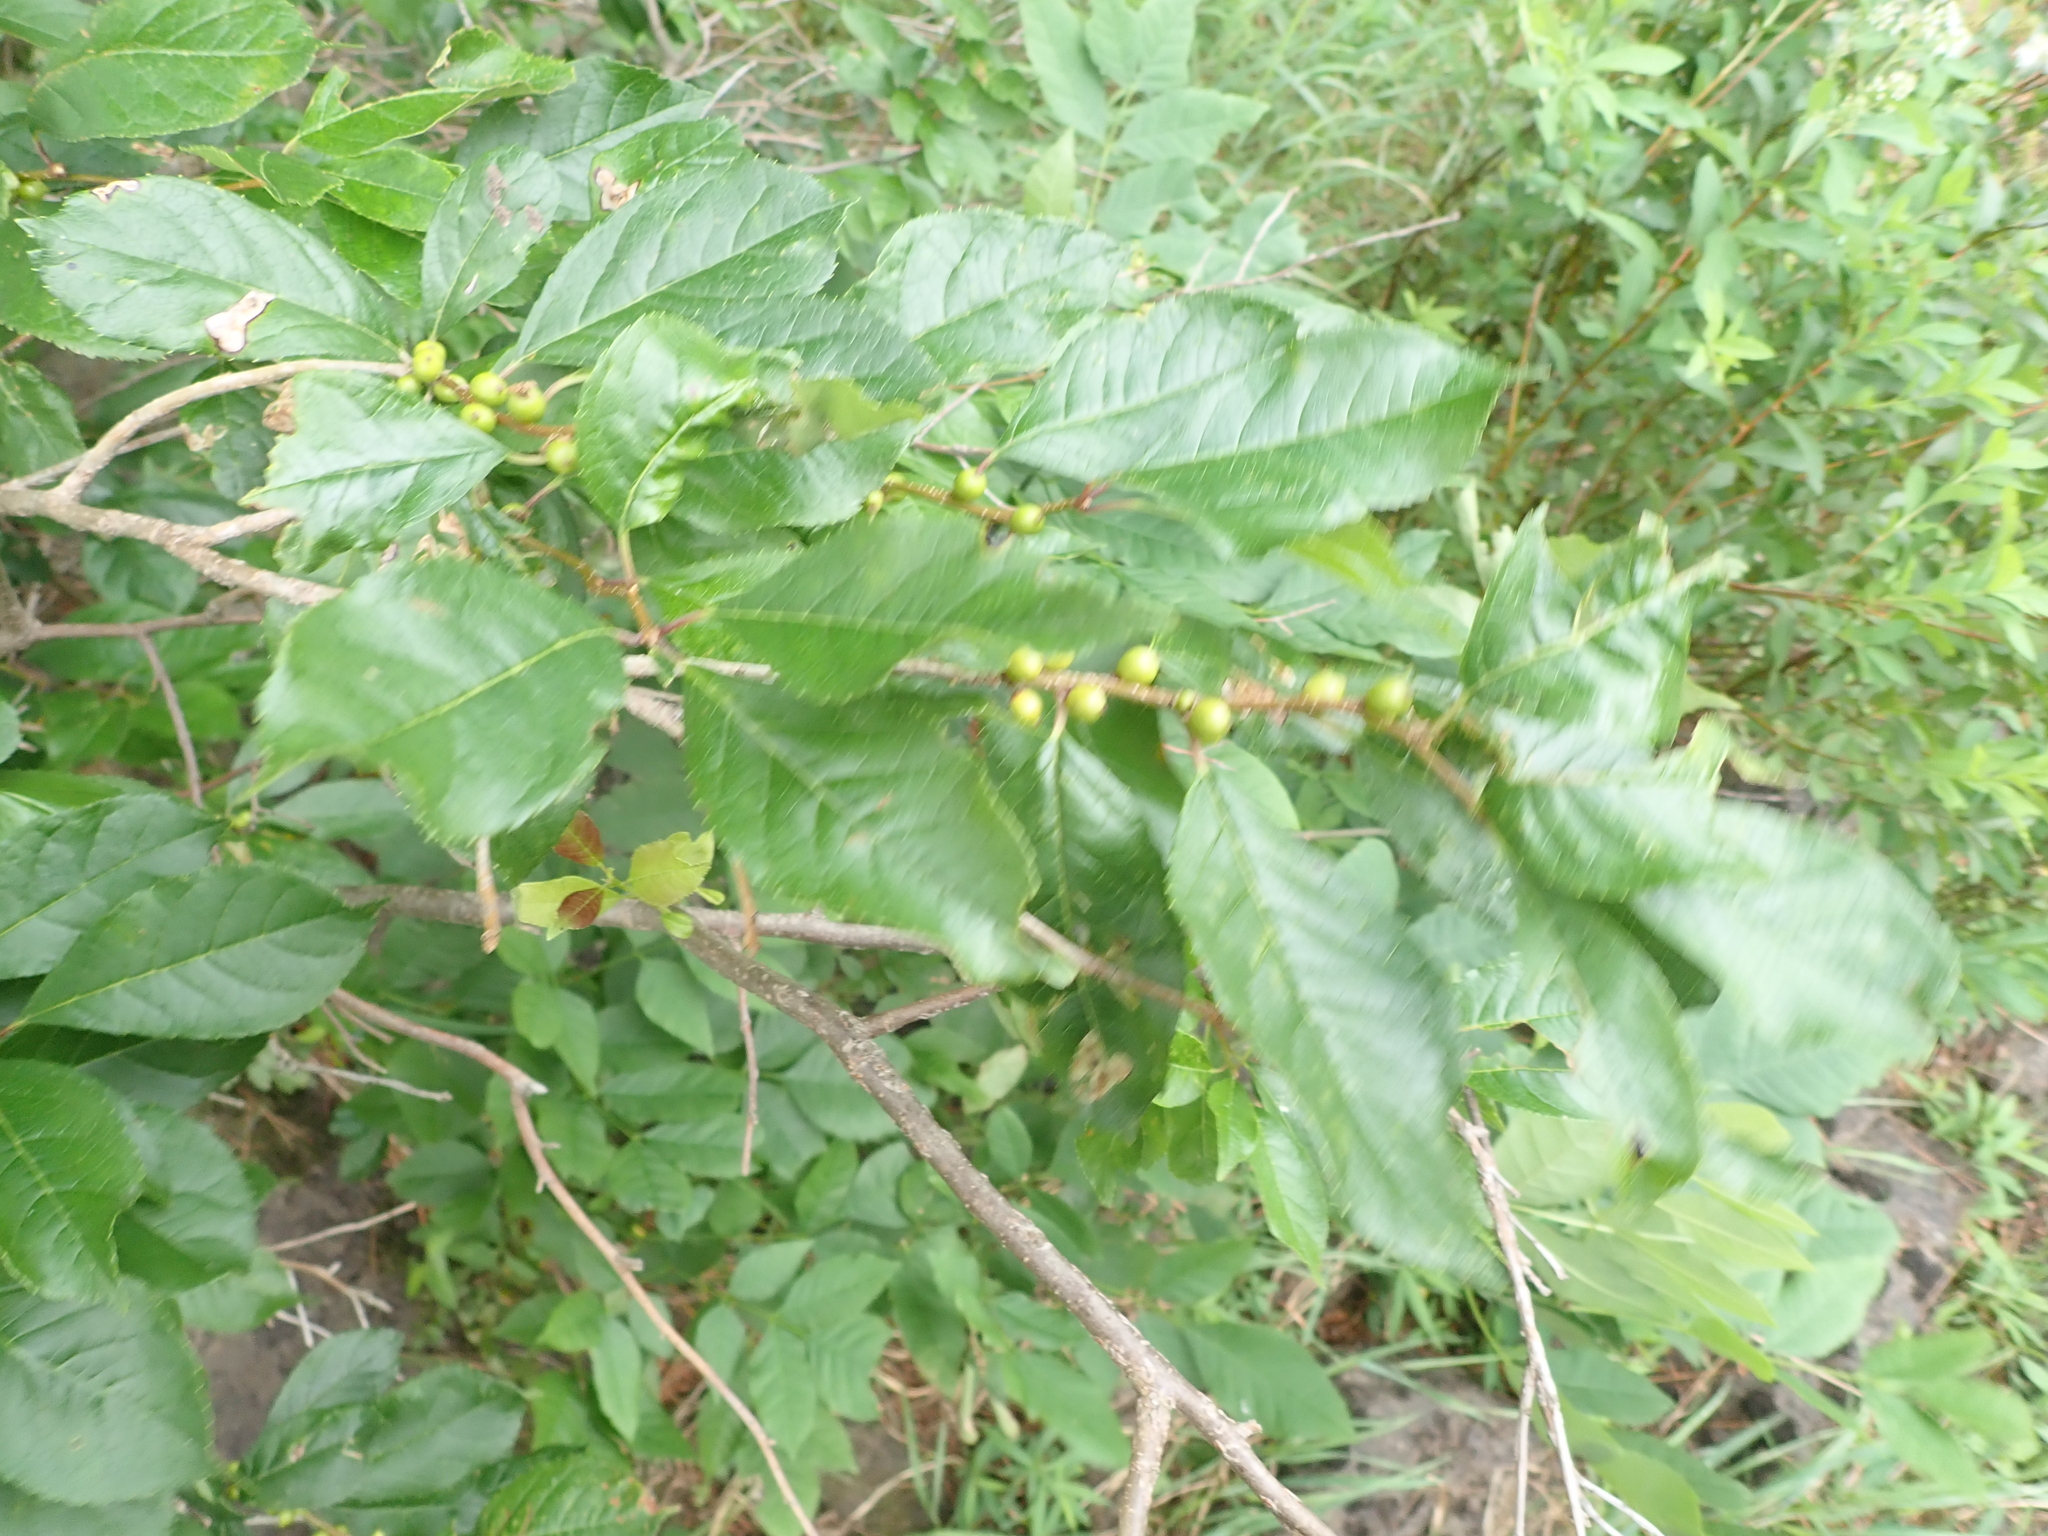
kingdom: Plantae
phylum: Tracheophyta
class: Magnoliopsida
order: Aquifoliales
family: Aquifoliaceae
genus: Ilex
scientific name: Ilex verticillata
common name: Virginia winterberry
